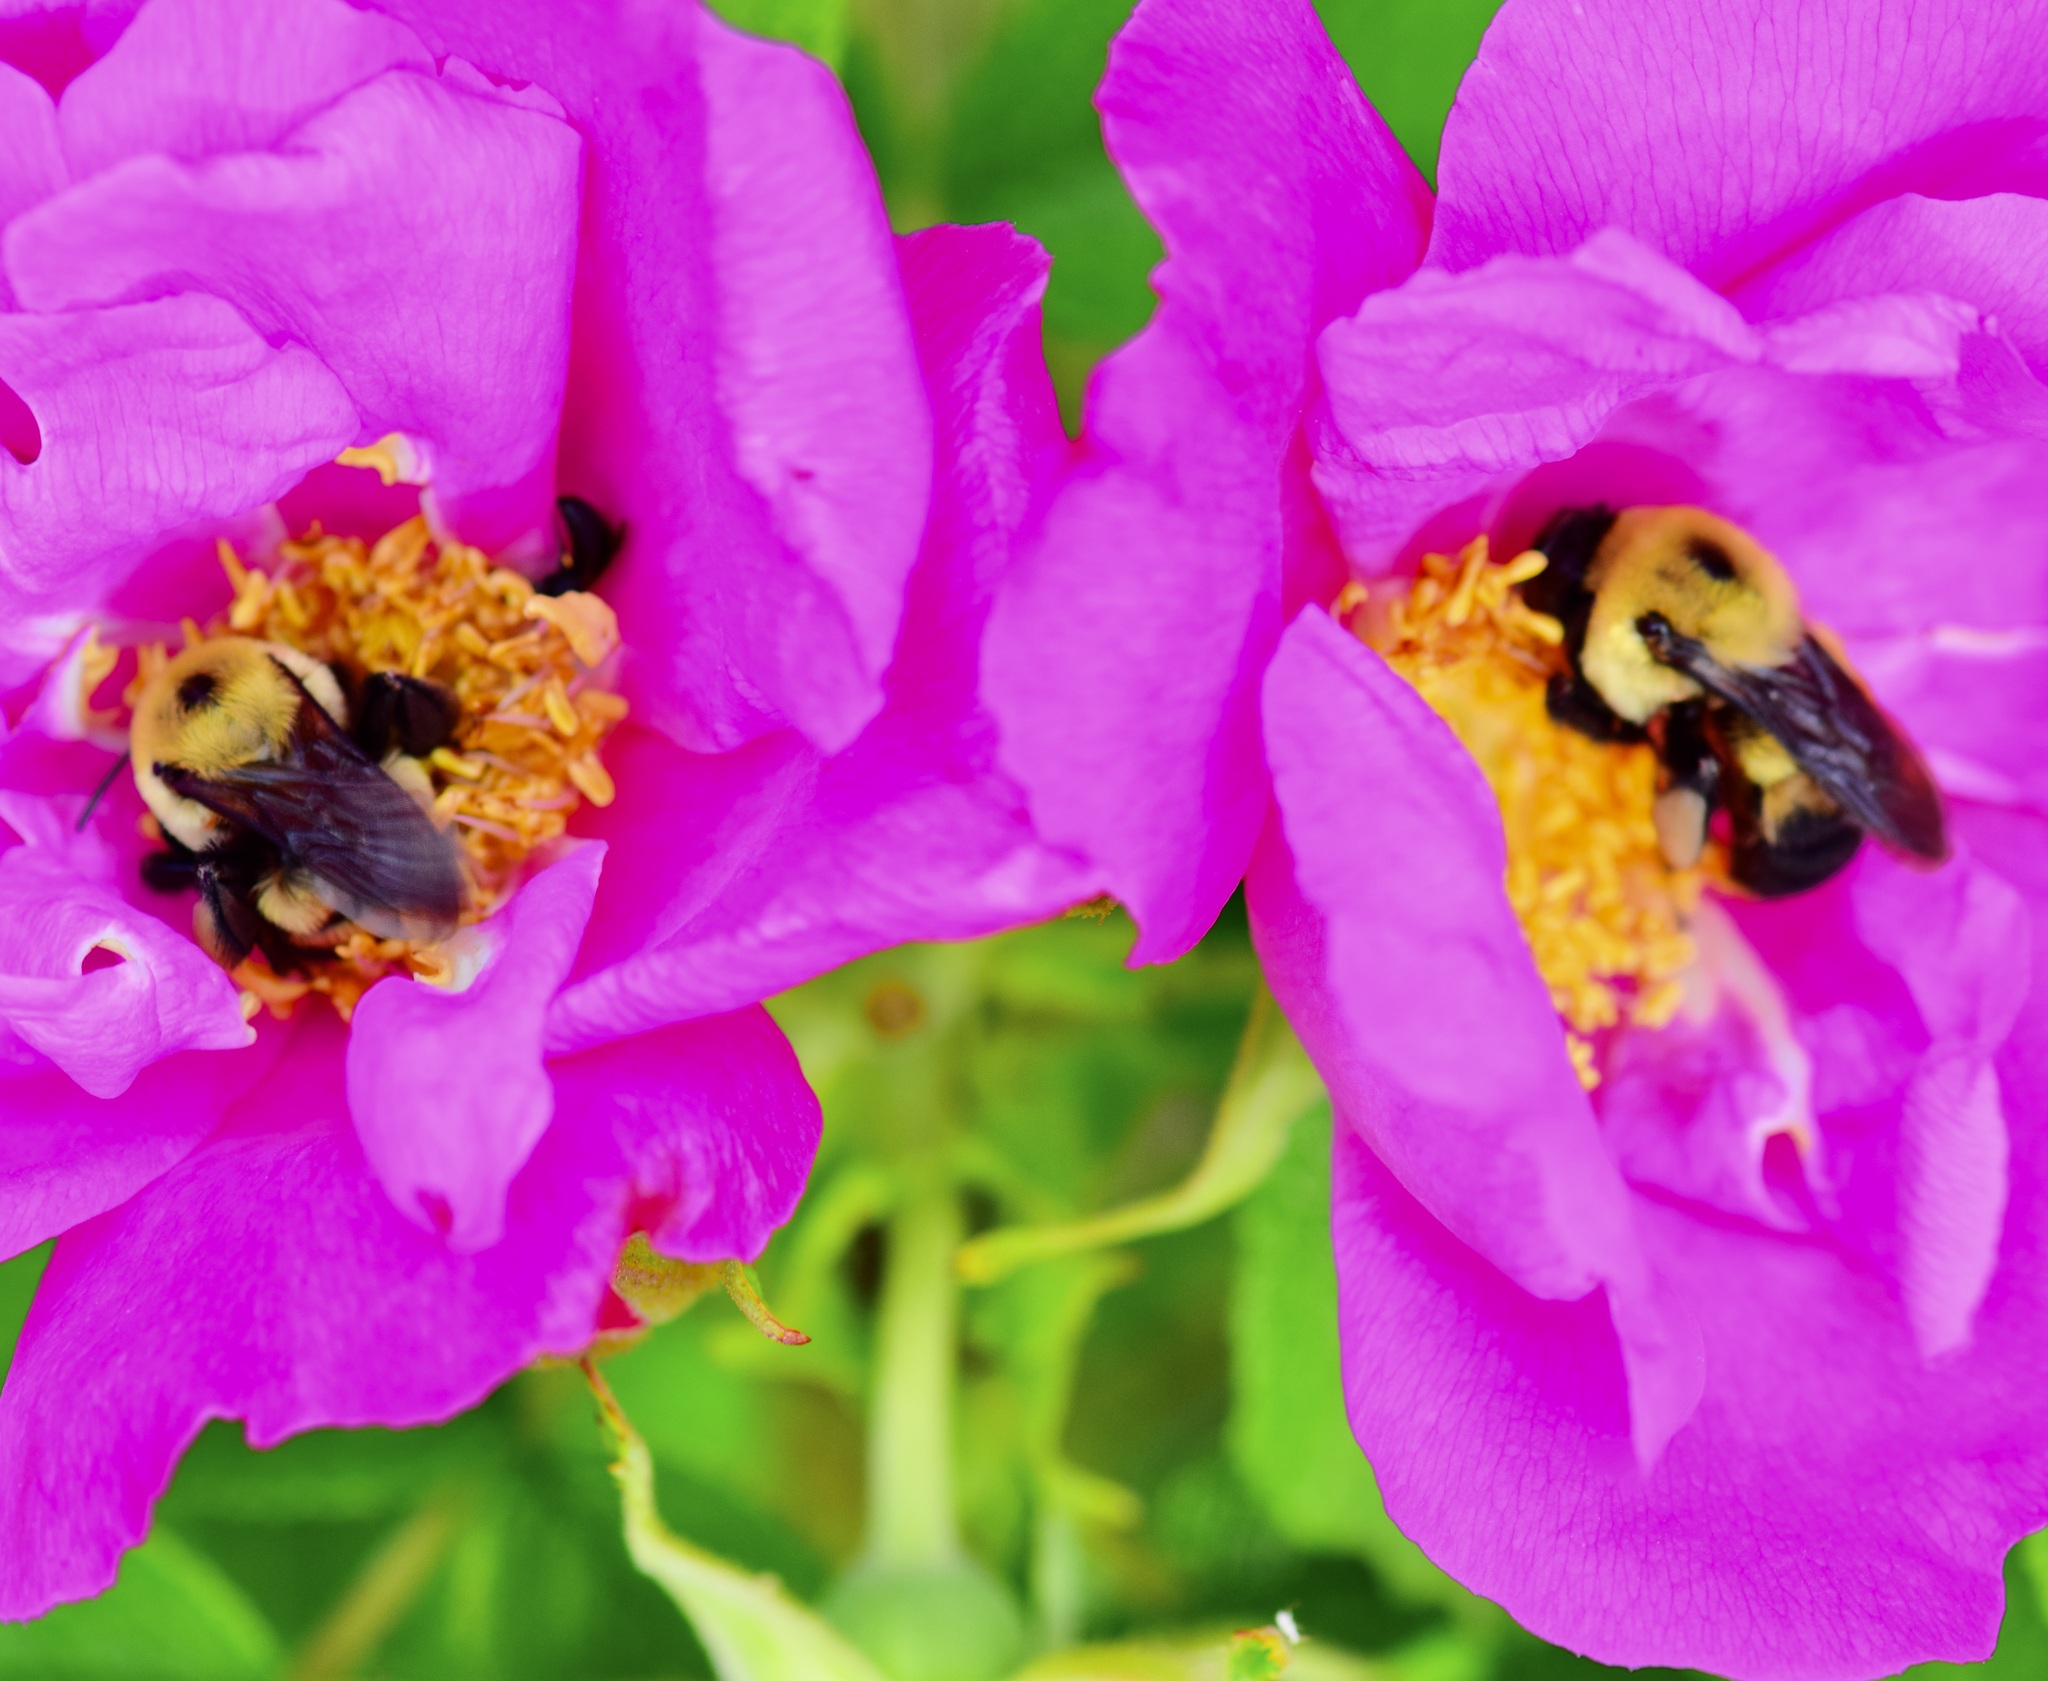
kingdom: Animalia
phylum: Arthropoda
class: Insecta
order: Hymenoptera
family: Apidae
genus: Bombus
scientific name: Bombus griseocollis
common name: Brown-belted bumble bee
